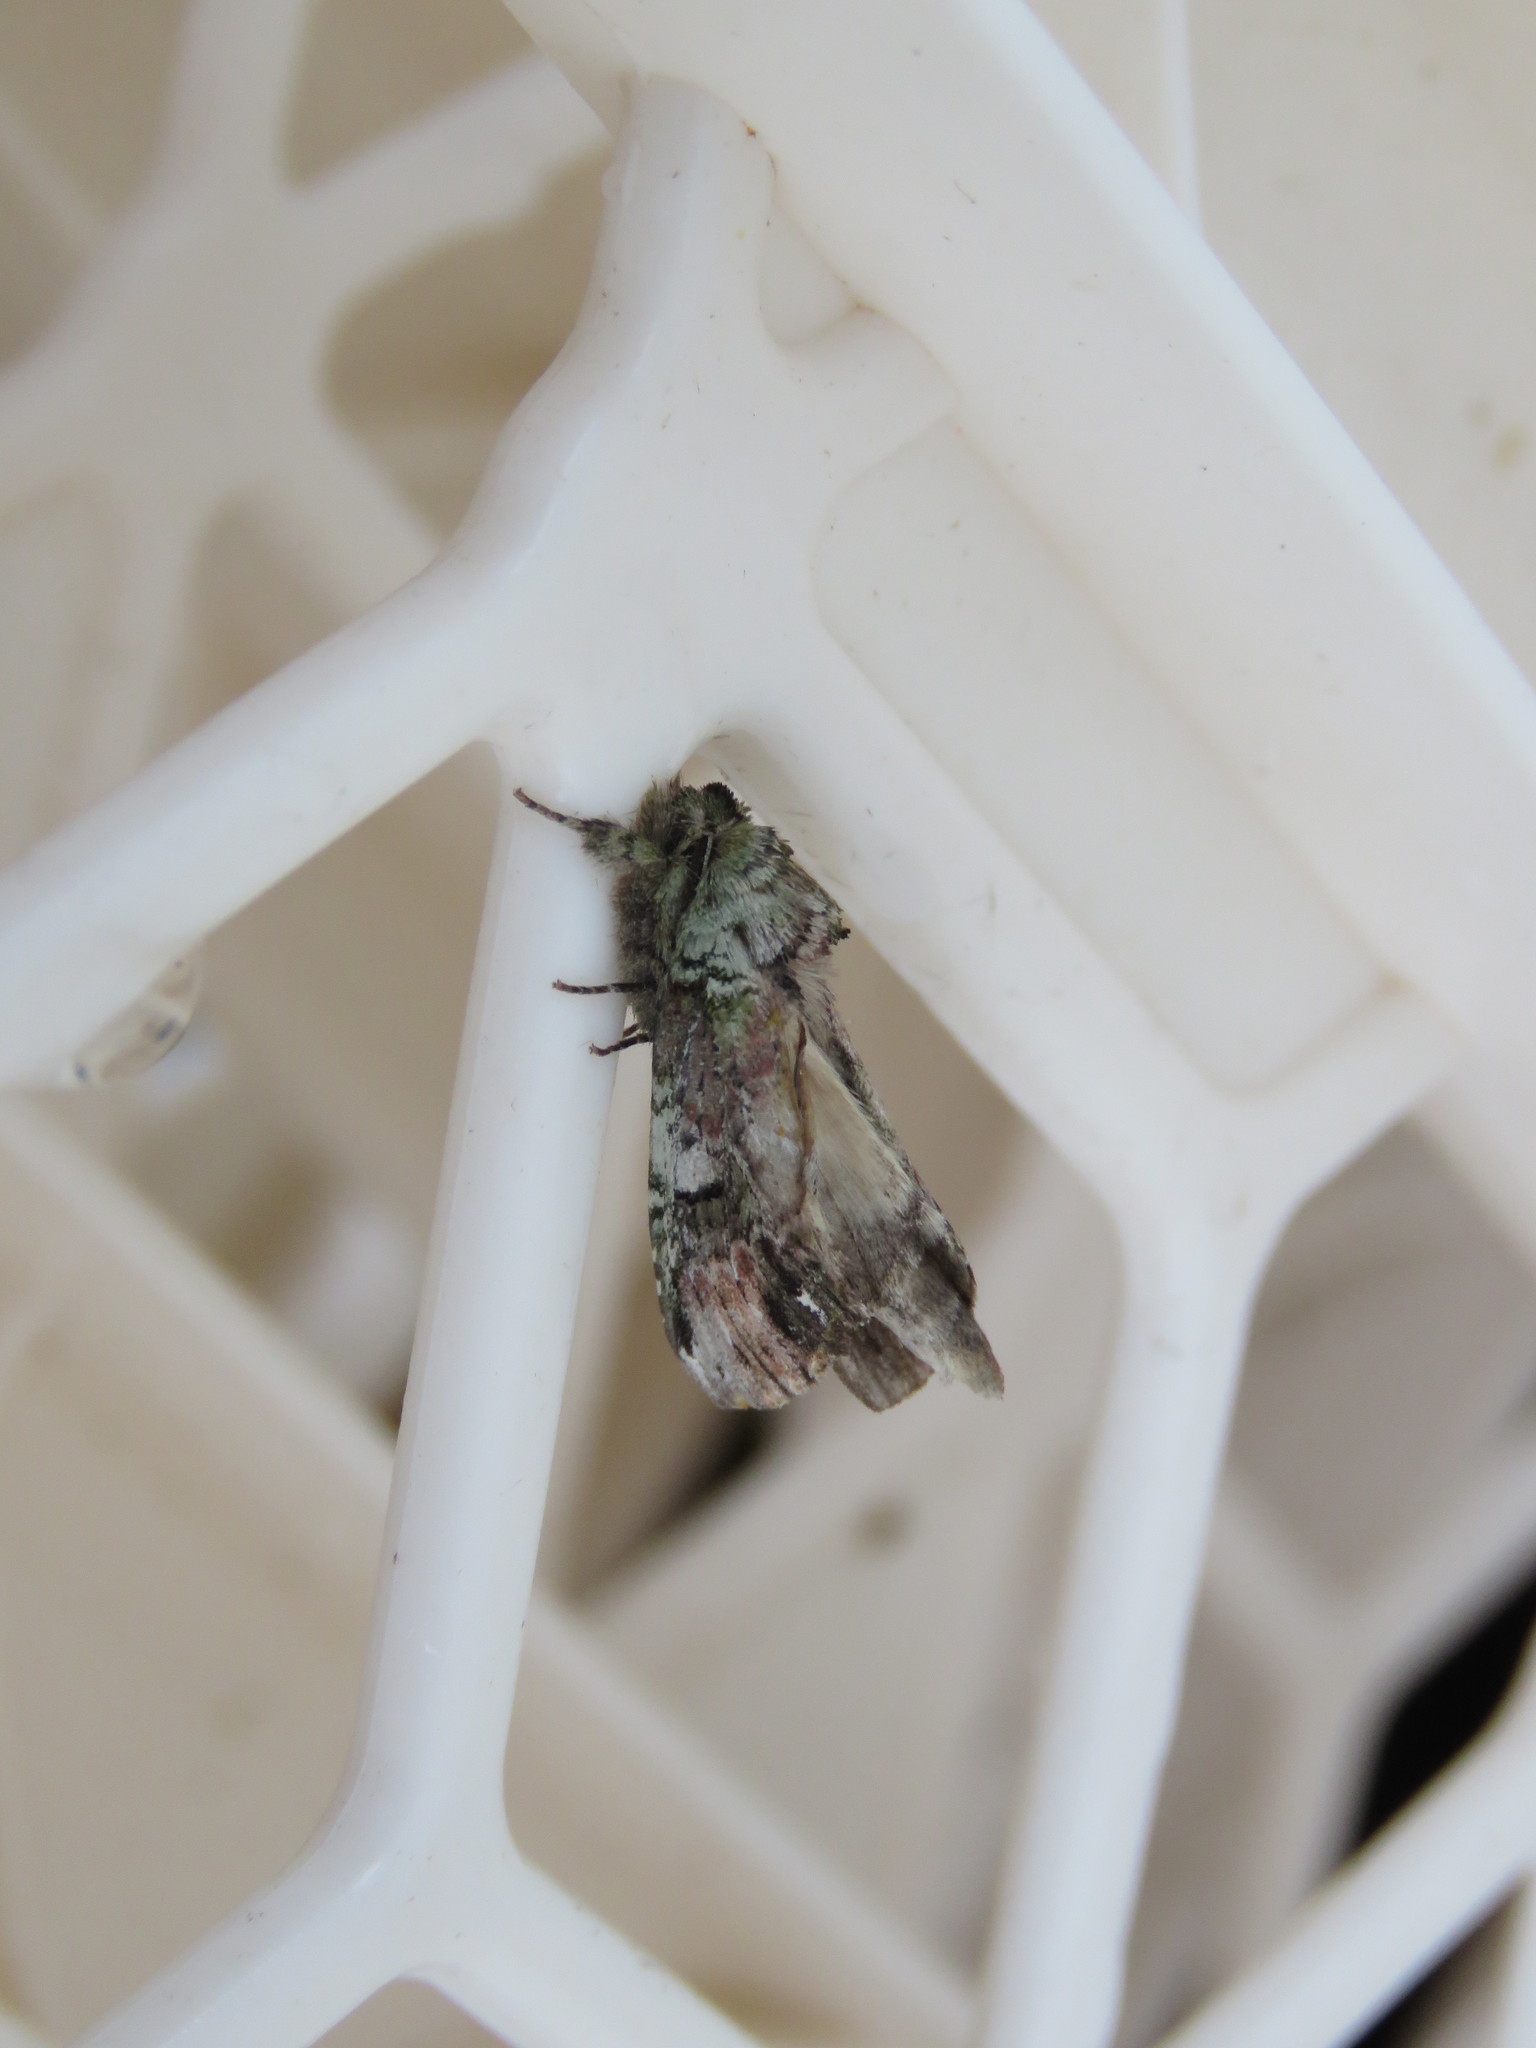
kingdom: Animalia
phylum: Arthropoda
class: Insecta
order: Lepidoptera
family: Notodontidae
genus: Schizura
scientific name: Schizura
